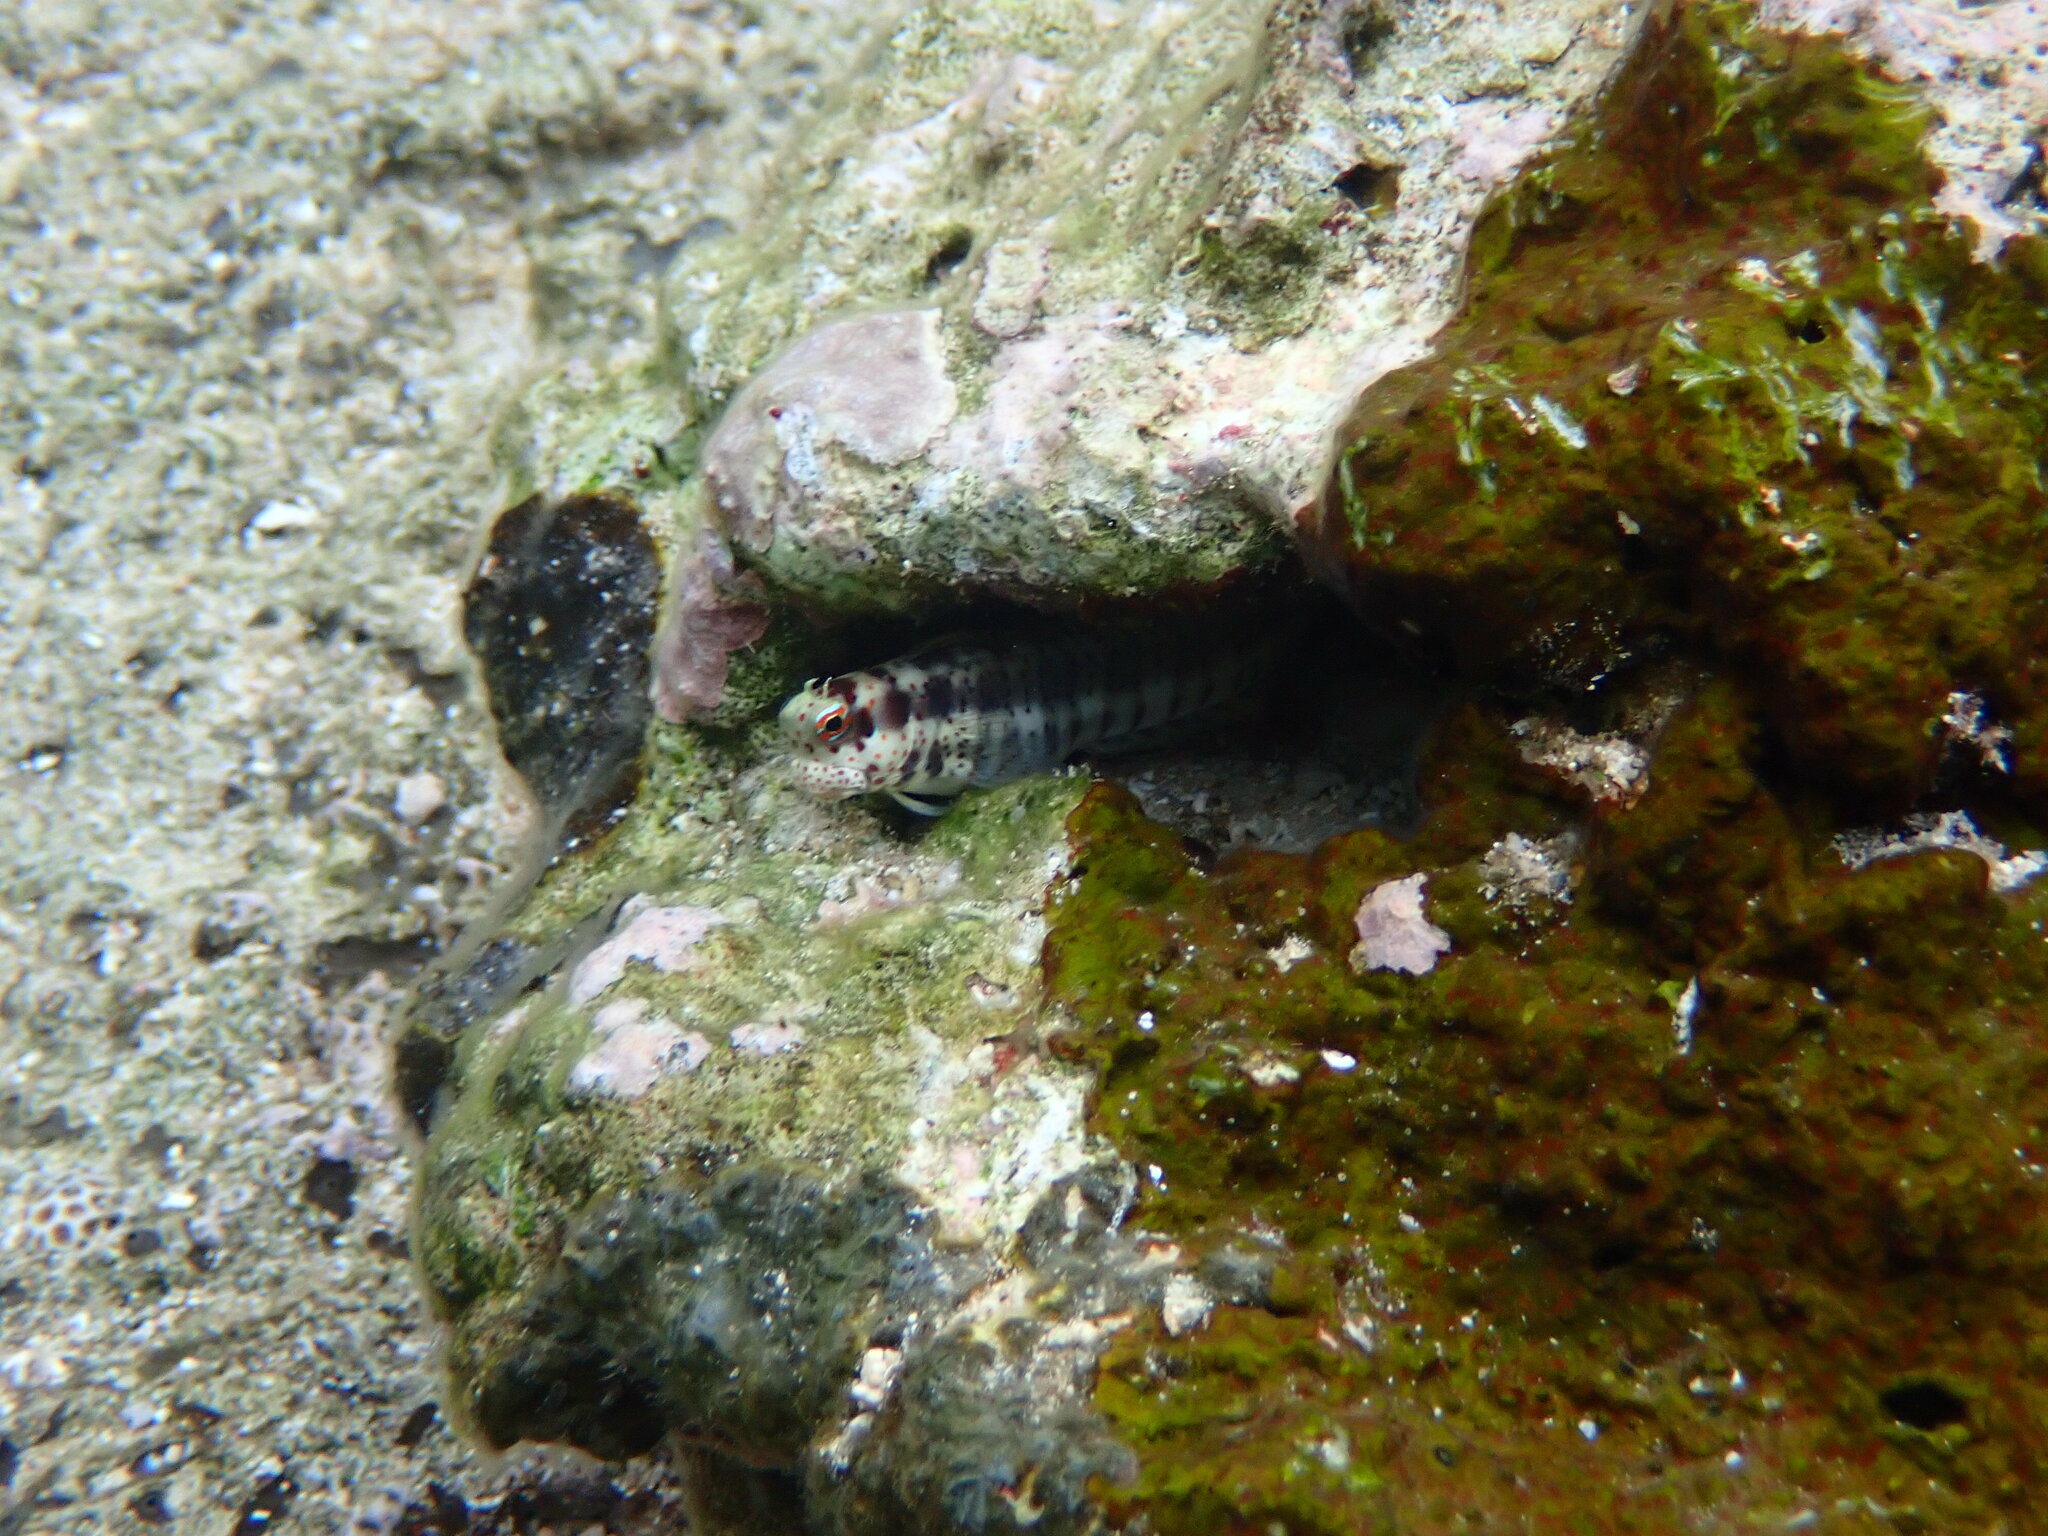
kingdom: Animalia
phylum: Chordata
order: Perciformes
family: Blenniidae
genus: Blenniella
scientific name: Blenniella chrysospilos
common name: Orange-spotted blenny
